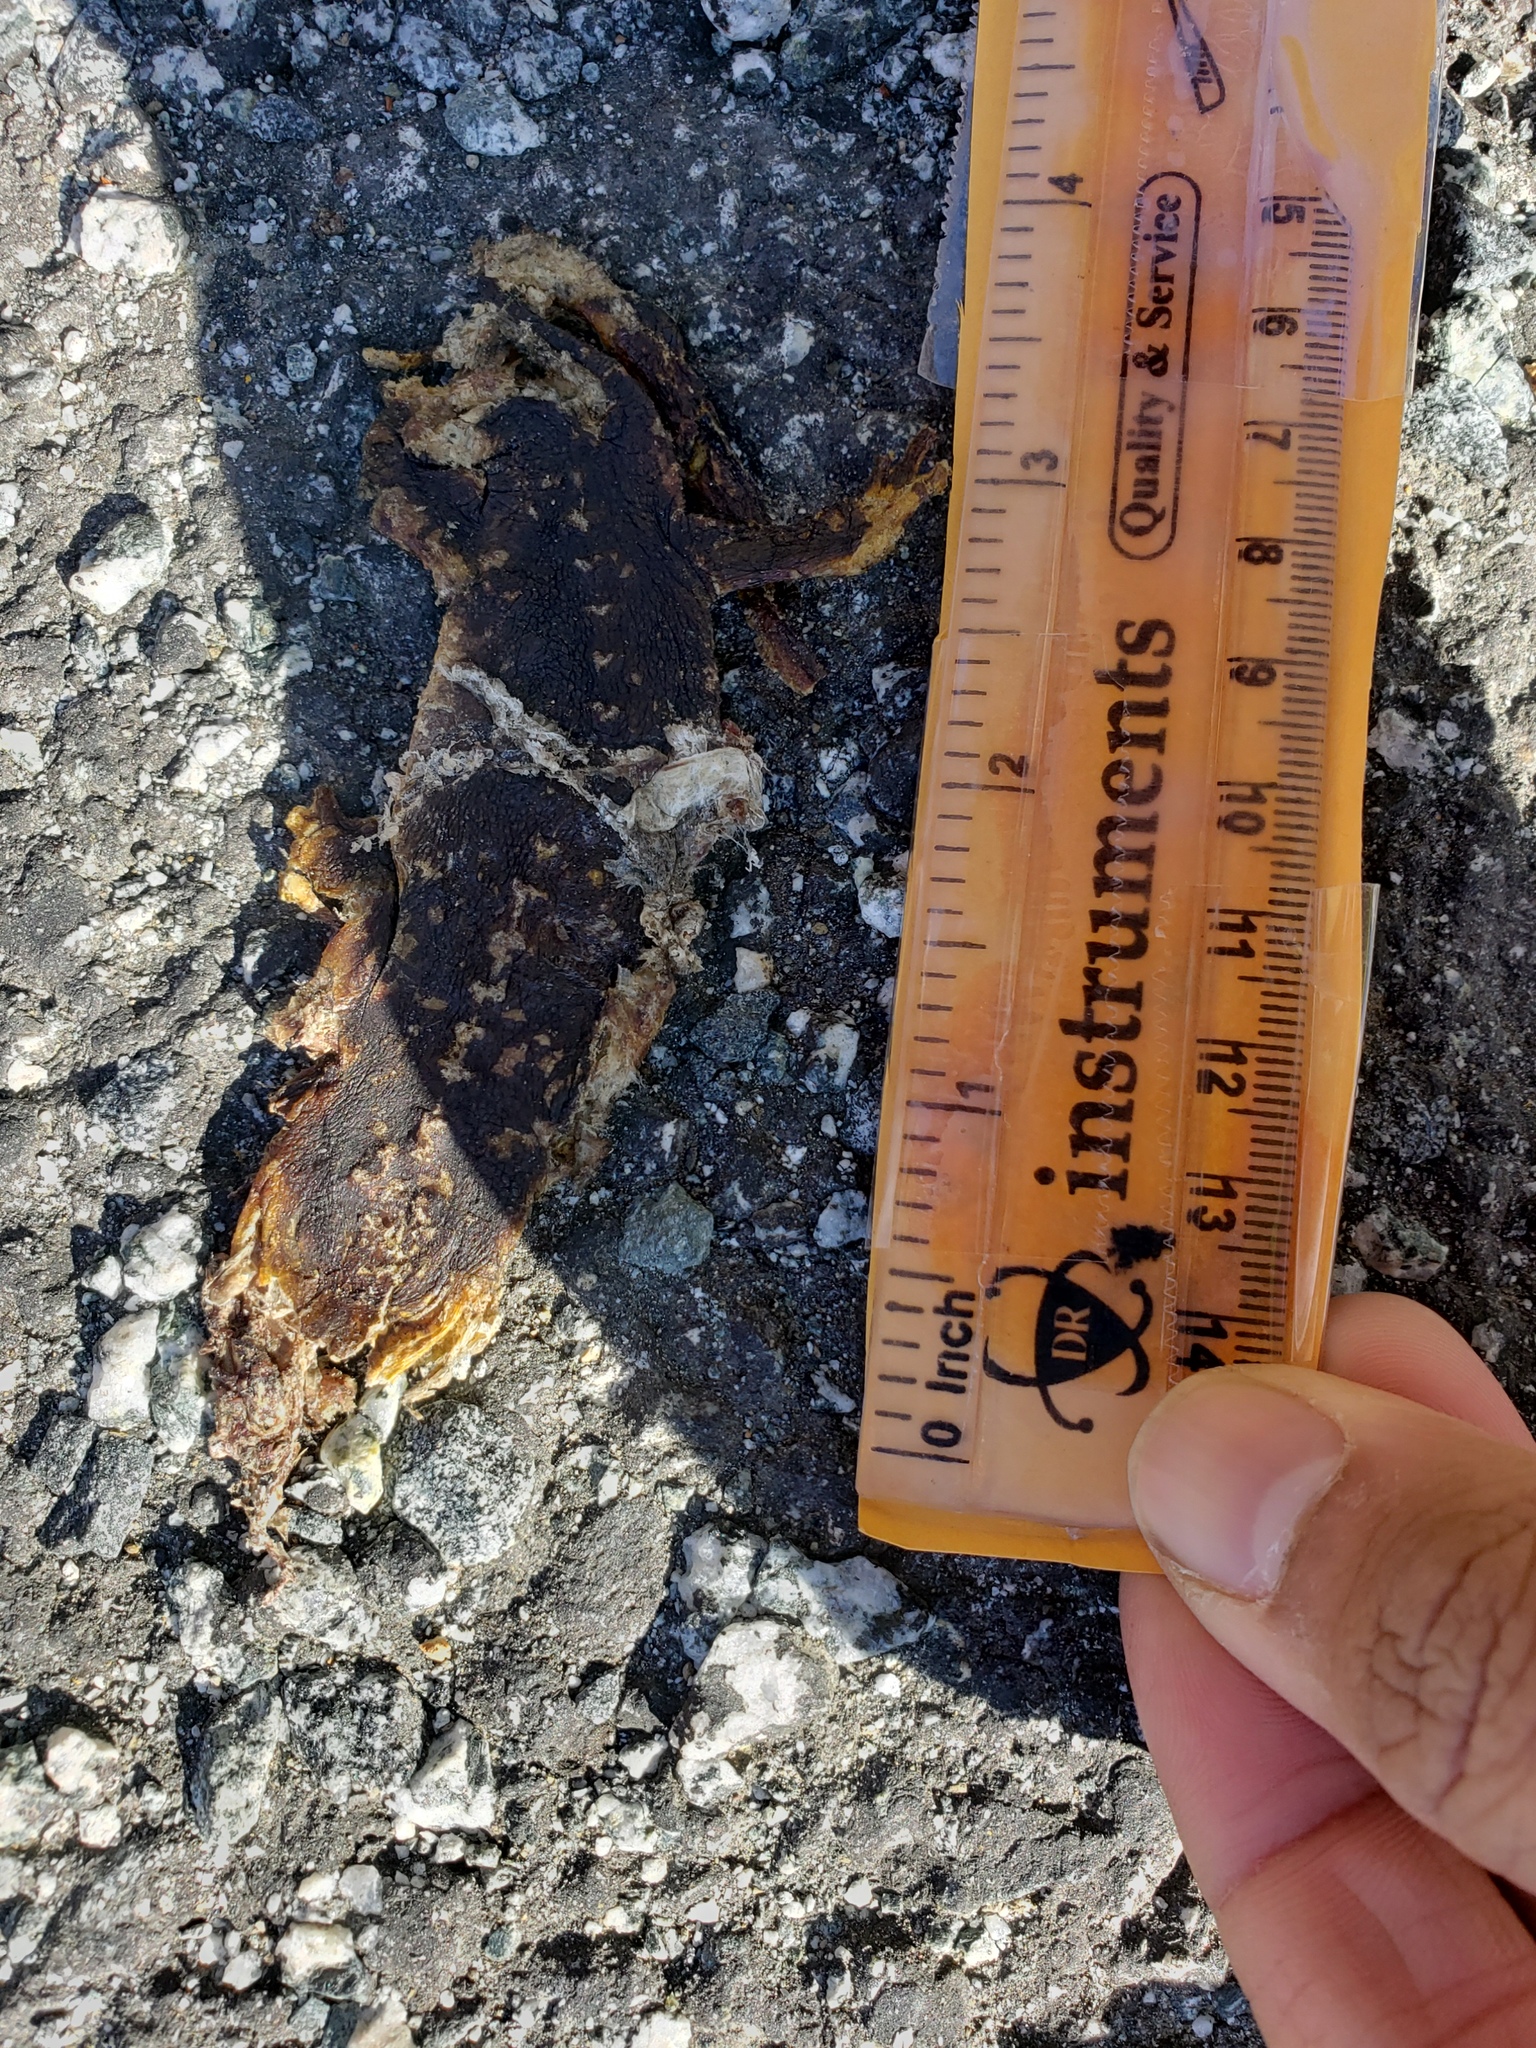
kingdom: Animalia
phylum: Chordata
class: Amphibia
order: Caudata
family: Salamandridae
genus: Taricha
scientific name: Taricha
